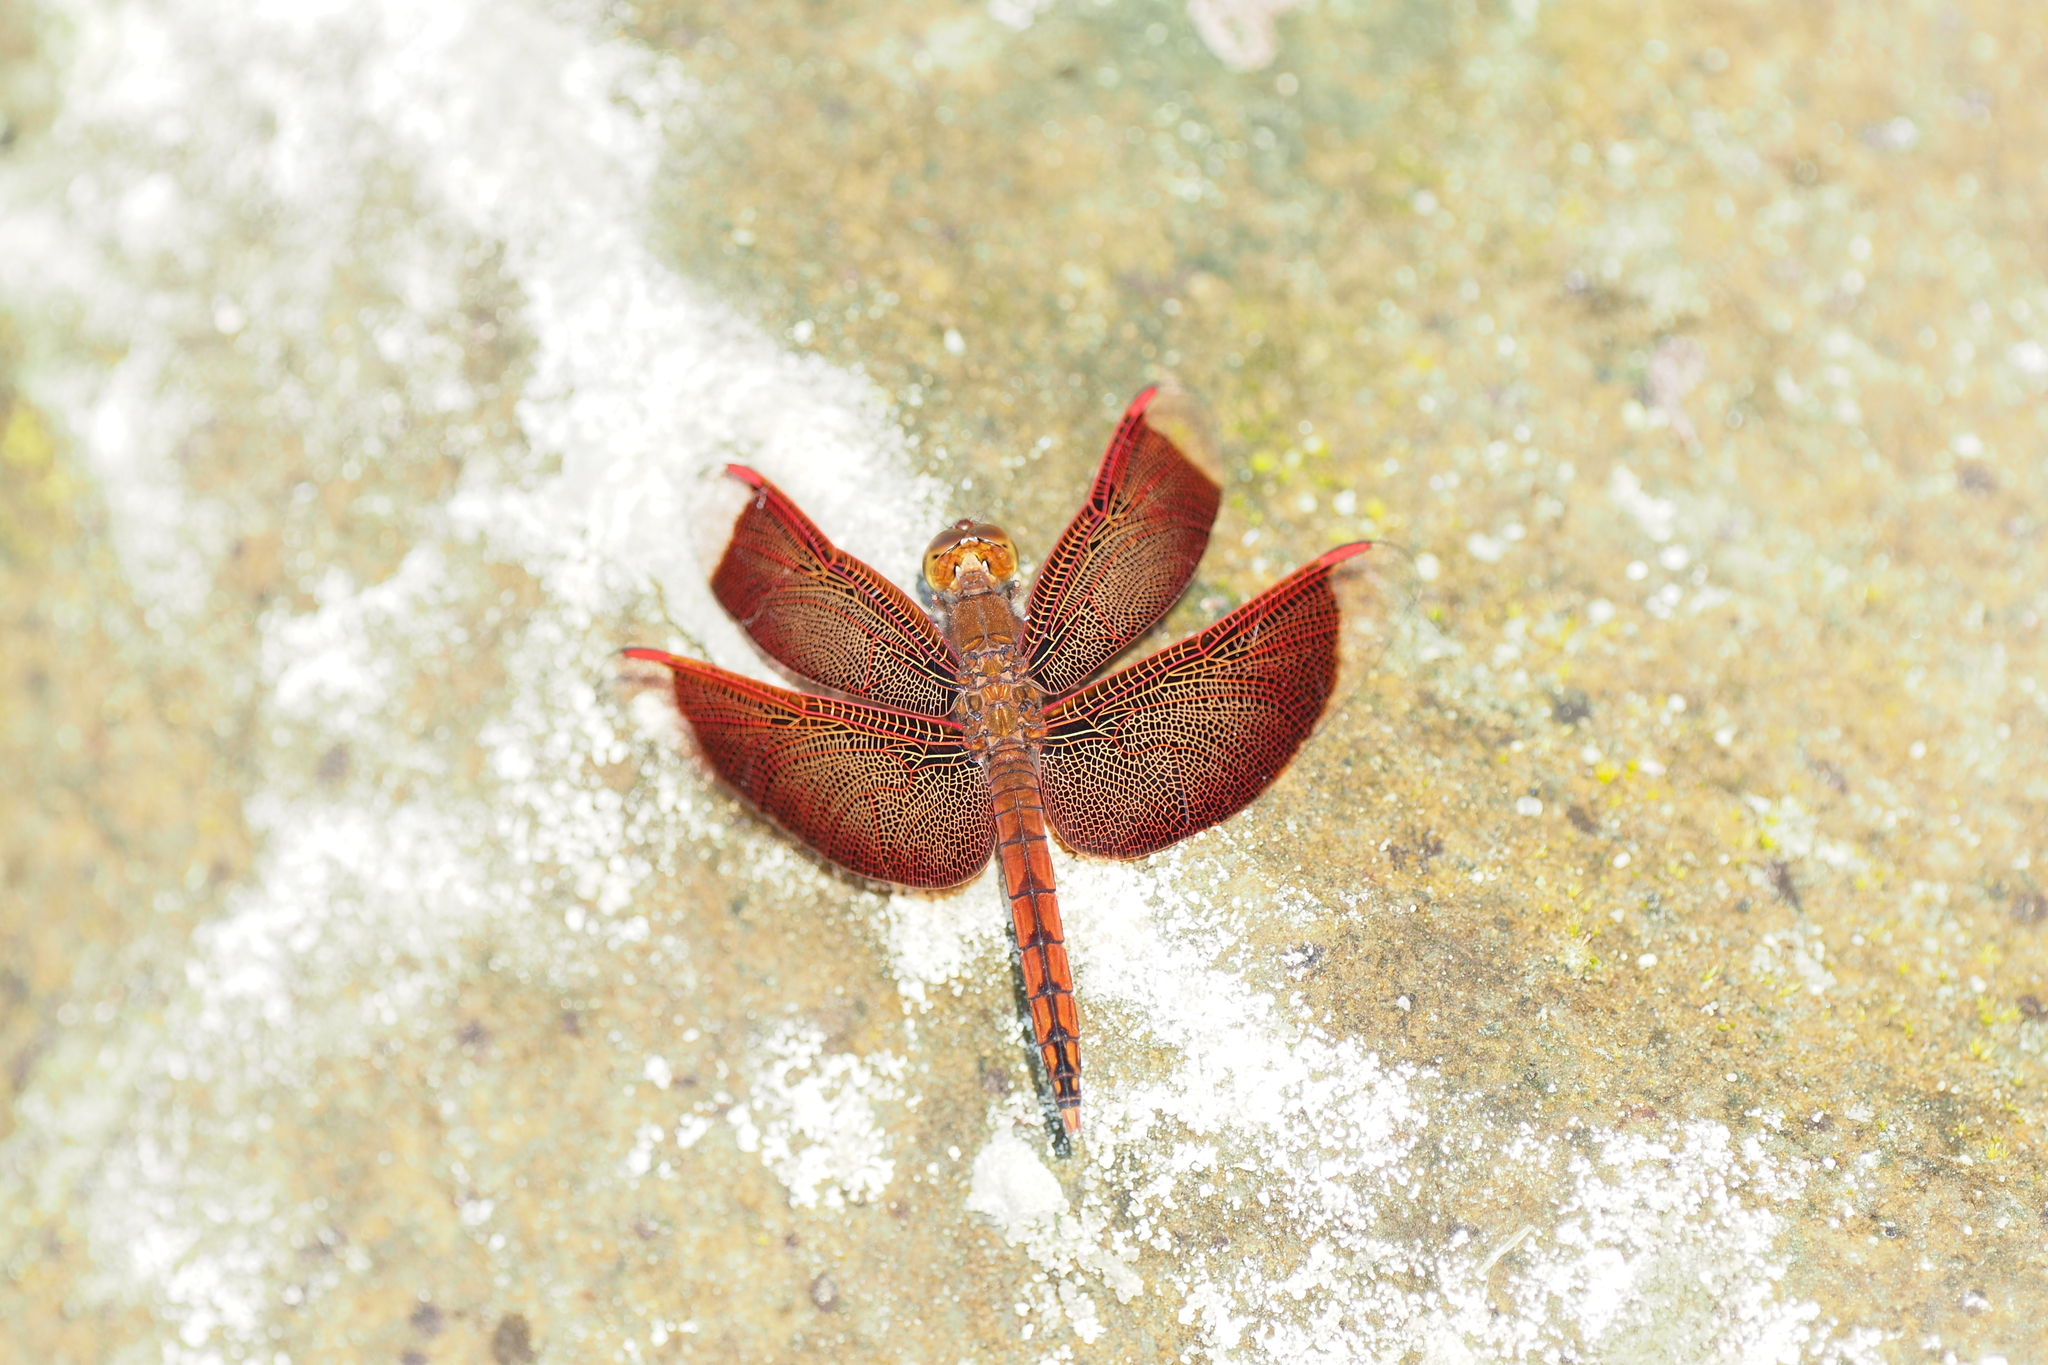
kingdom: Animalia
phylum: Arthropoda
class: Insecta
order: Odonata
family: Libellulidae
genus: Neurothemis
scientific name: Neurothemis taiwanensis
